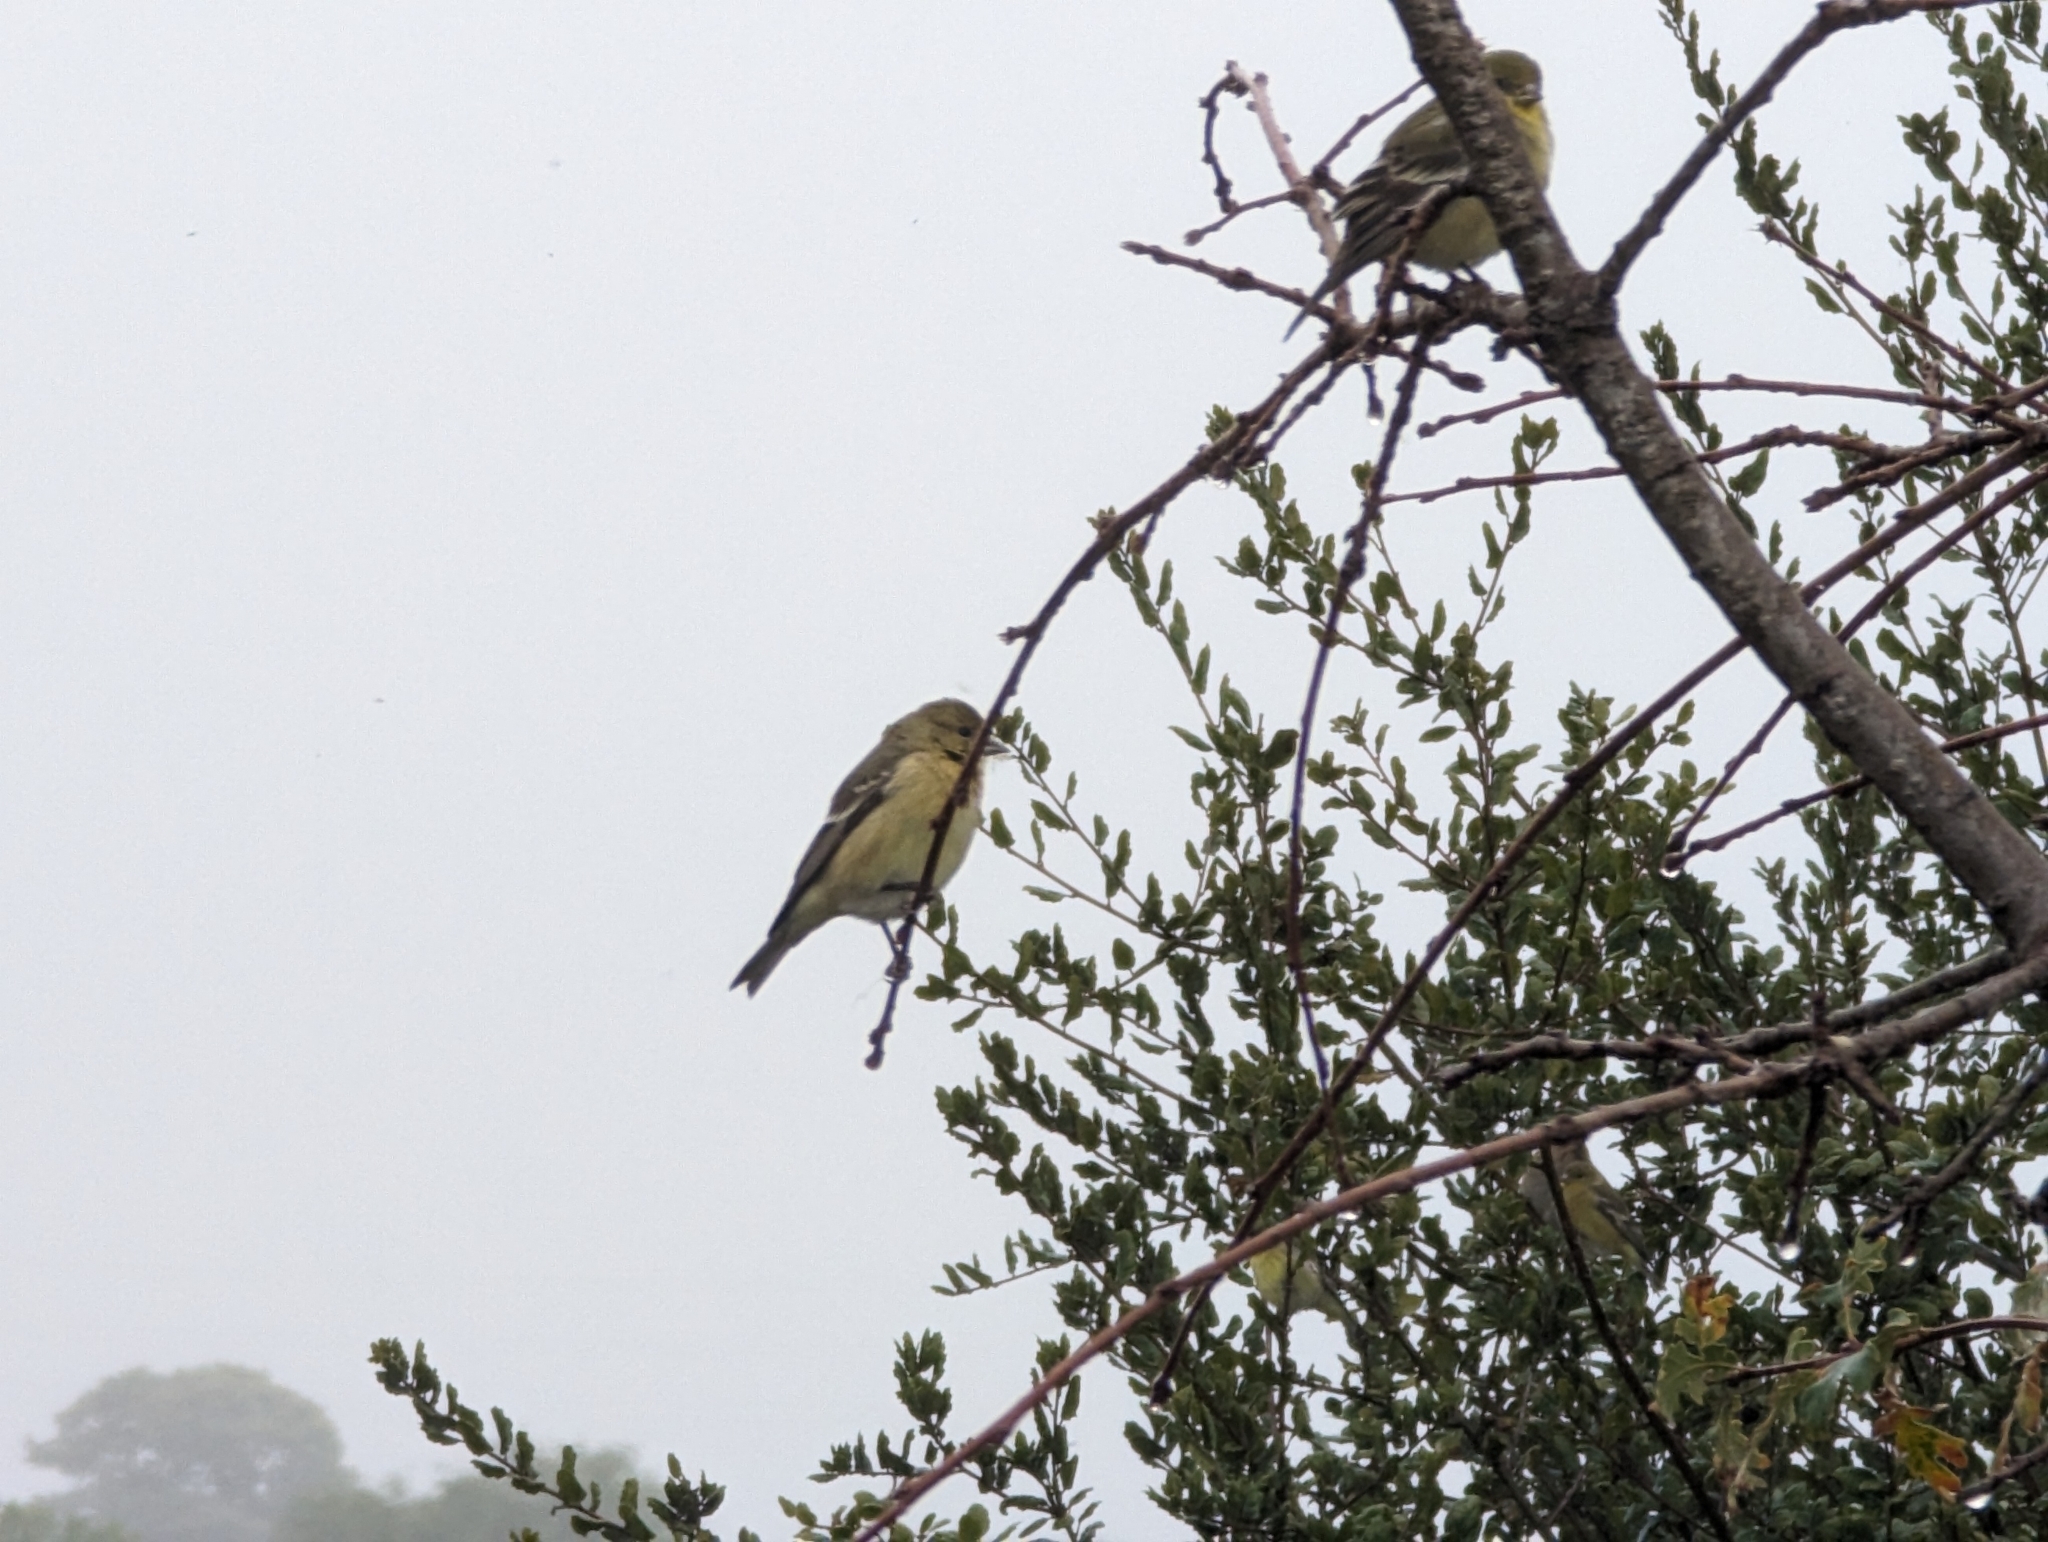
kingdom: Animalia
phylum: Chordata
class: Aves
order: Passeriformes
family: Fringillidae
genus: Spinus
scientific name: Spinus psaltria
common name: Lesser goldfinch
